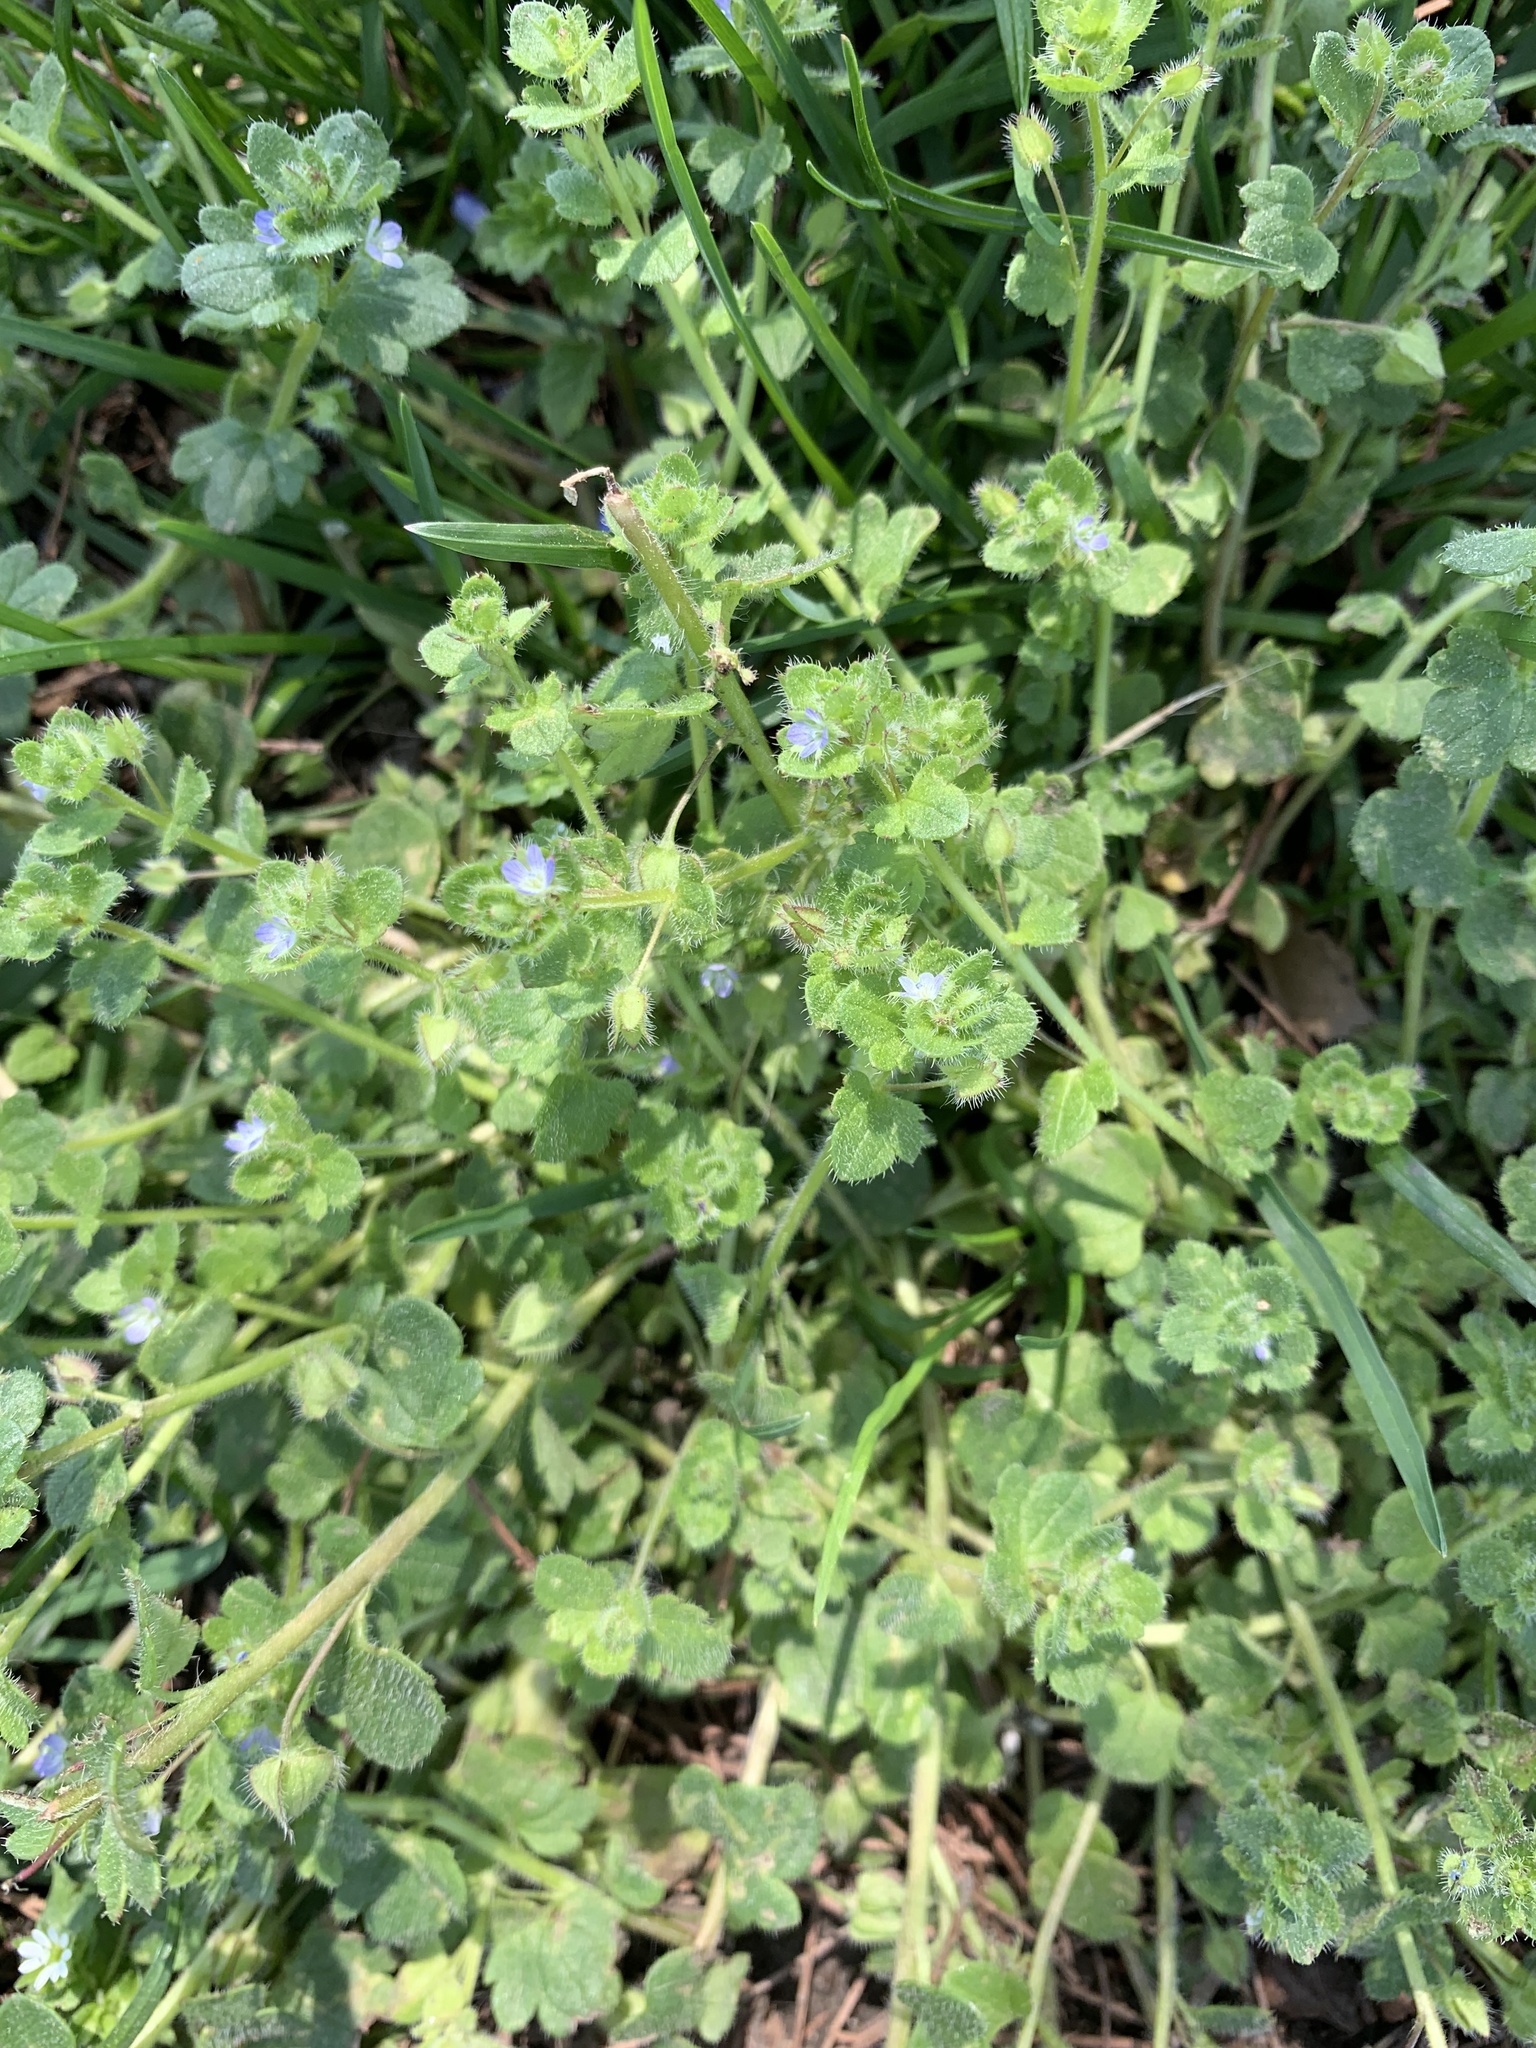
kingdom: Plantae
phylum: Tracheophyta
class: Magnoliopsida
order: Lamiales
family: Plantaginaceae
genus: Veronica
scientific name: Veronica hederifolia
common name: Ivy-leaved speedwell
